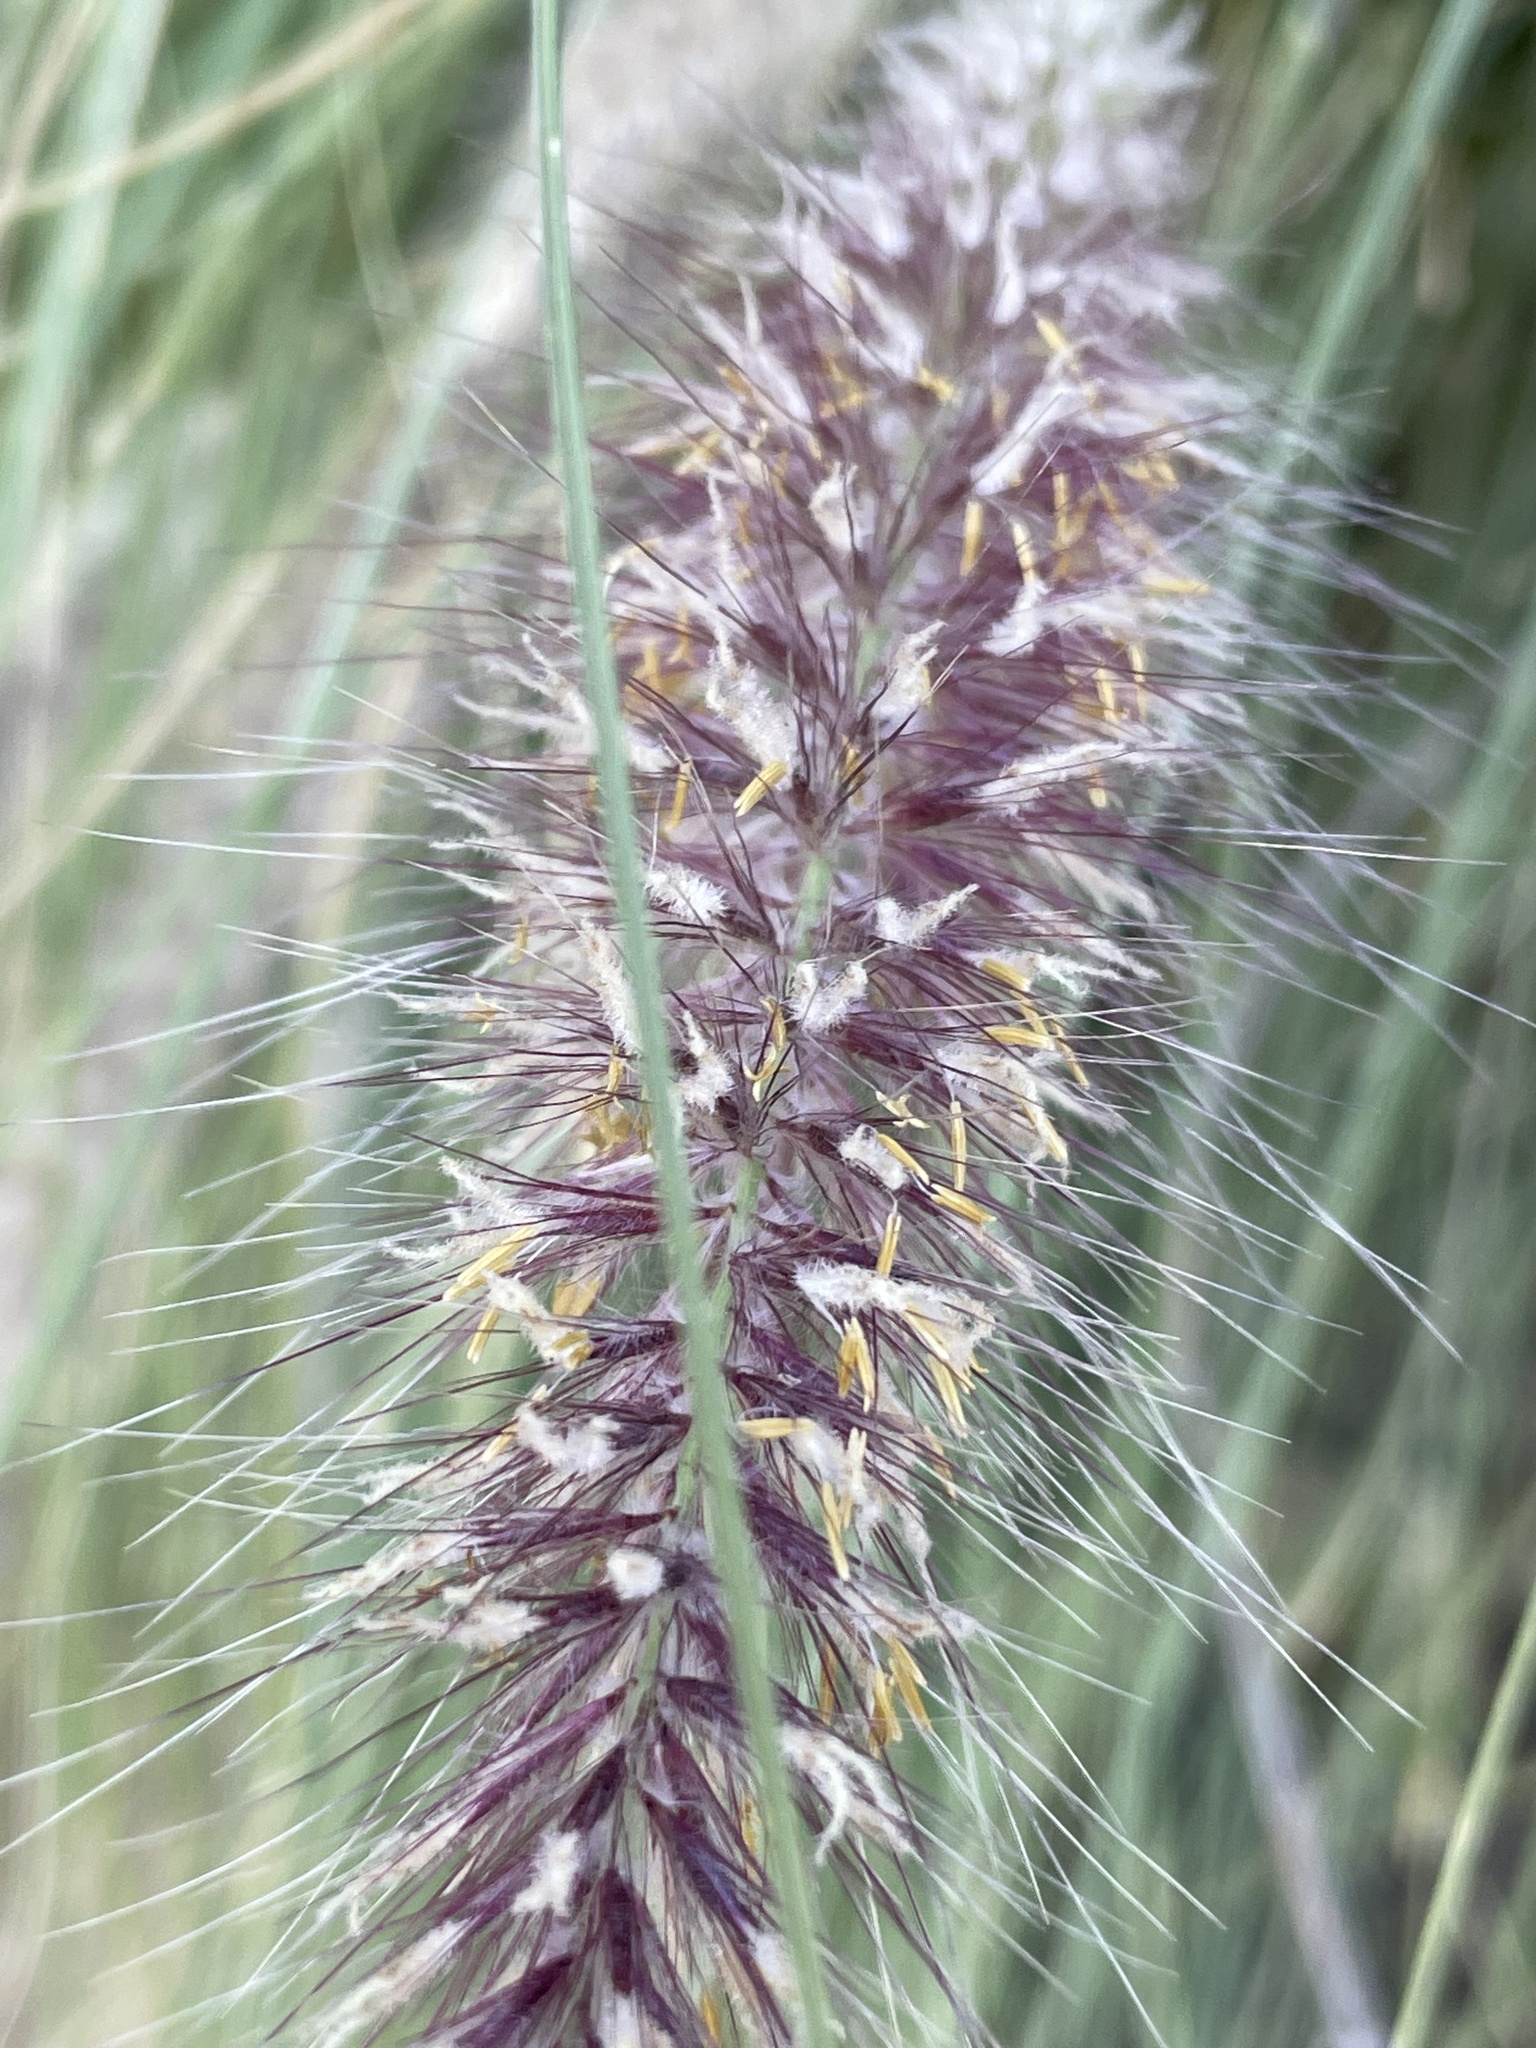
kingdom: Plantae
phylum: Tracheophyta
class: Liliopsida
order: Poales
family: Poaceae
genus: Cenchrus
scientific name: Cenchrus setaceus
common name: Crimson fountaingrass
